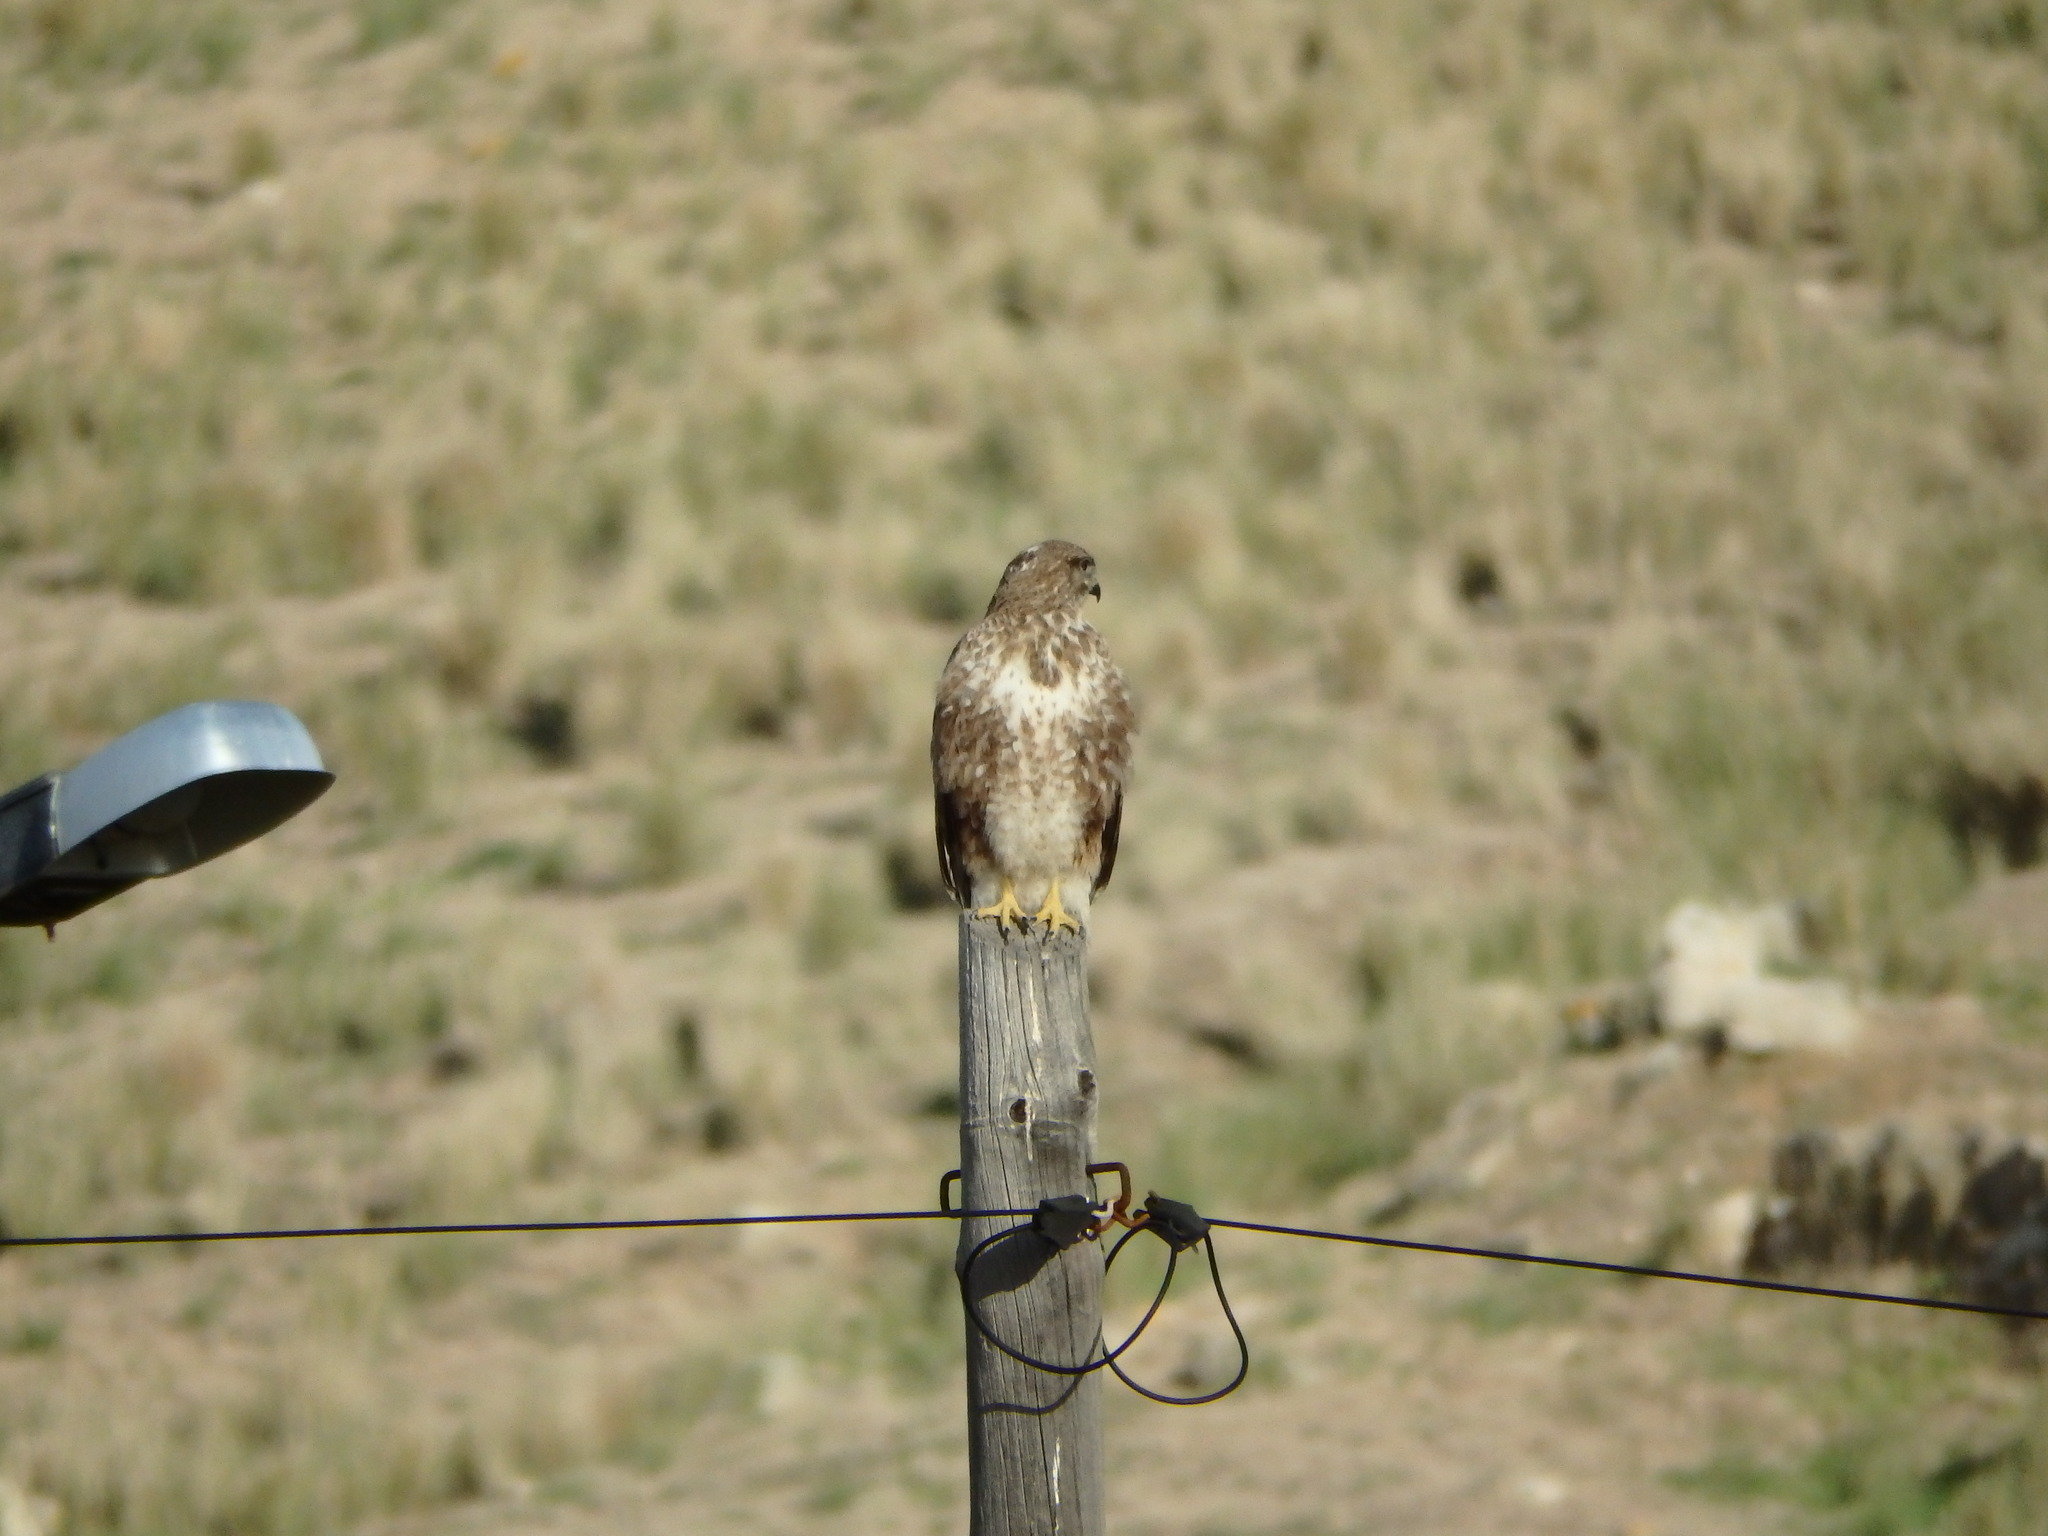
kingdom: Animalia
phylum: Chordata
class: Aves
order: Accipitriformes
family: Accipitridae
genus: Buteo
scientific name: Buteo buteo
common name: Common buzzard
